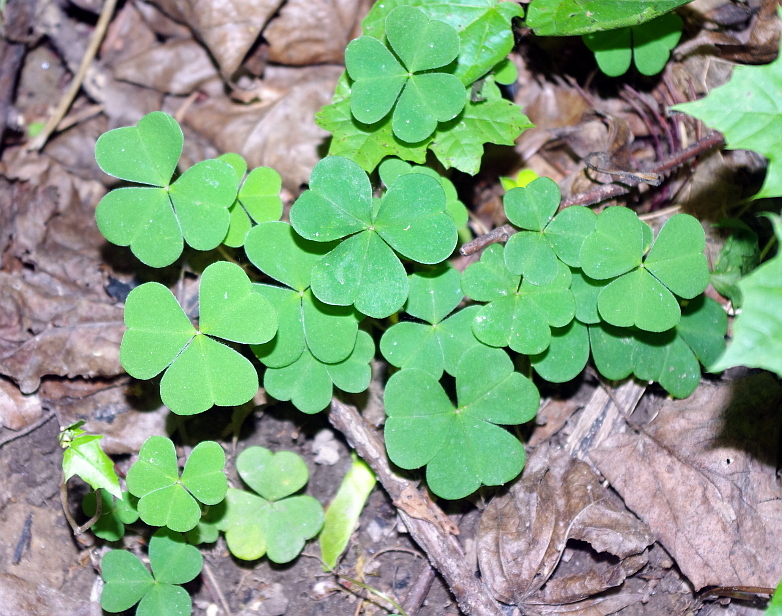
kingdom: Plantae
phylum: Tracheophyta
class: Magnoliopsida
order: Oxalidales
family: Oxalidaceae
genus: Oxalis
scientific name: Oxalis acetosella
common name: Wood-sorrel
